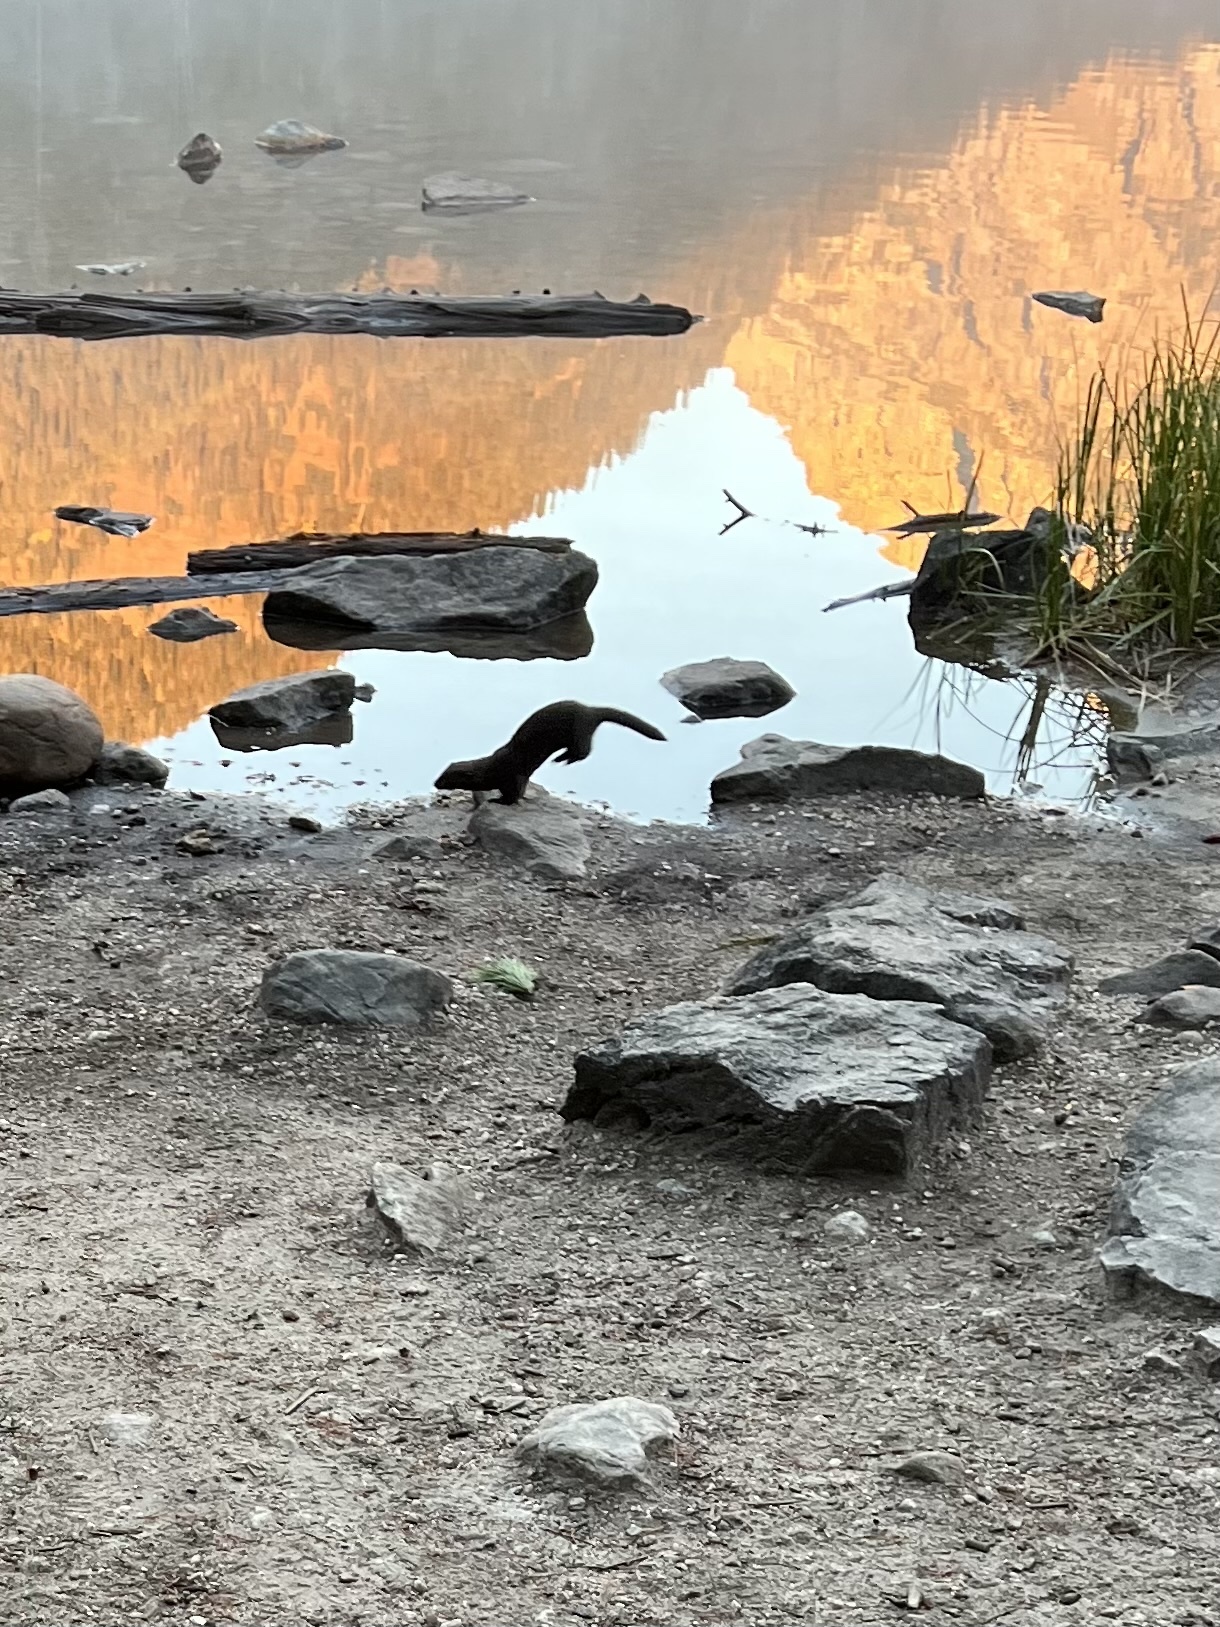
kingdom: Animalia
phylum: Chordata
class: Mammalia
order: Carnivora
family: Mustelidae
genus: Mustela
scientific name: Mustela
